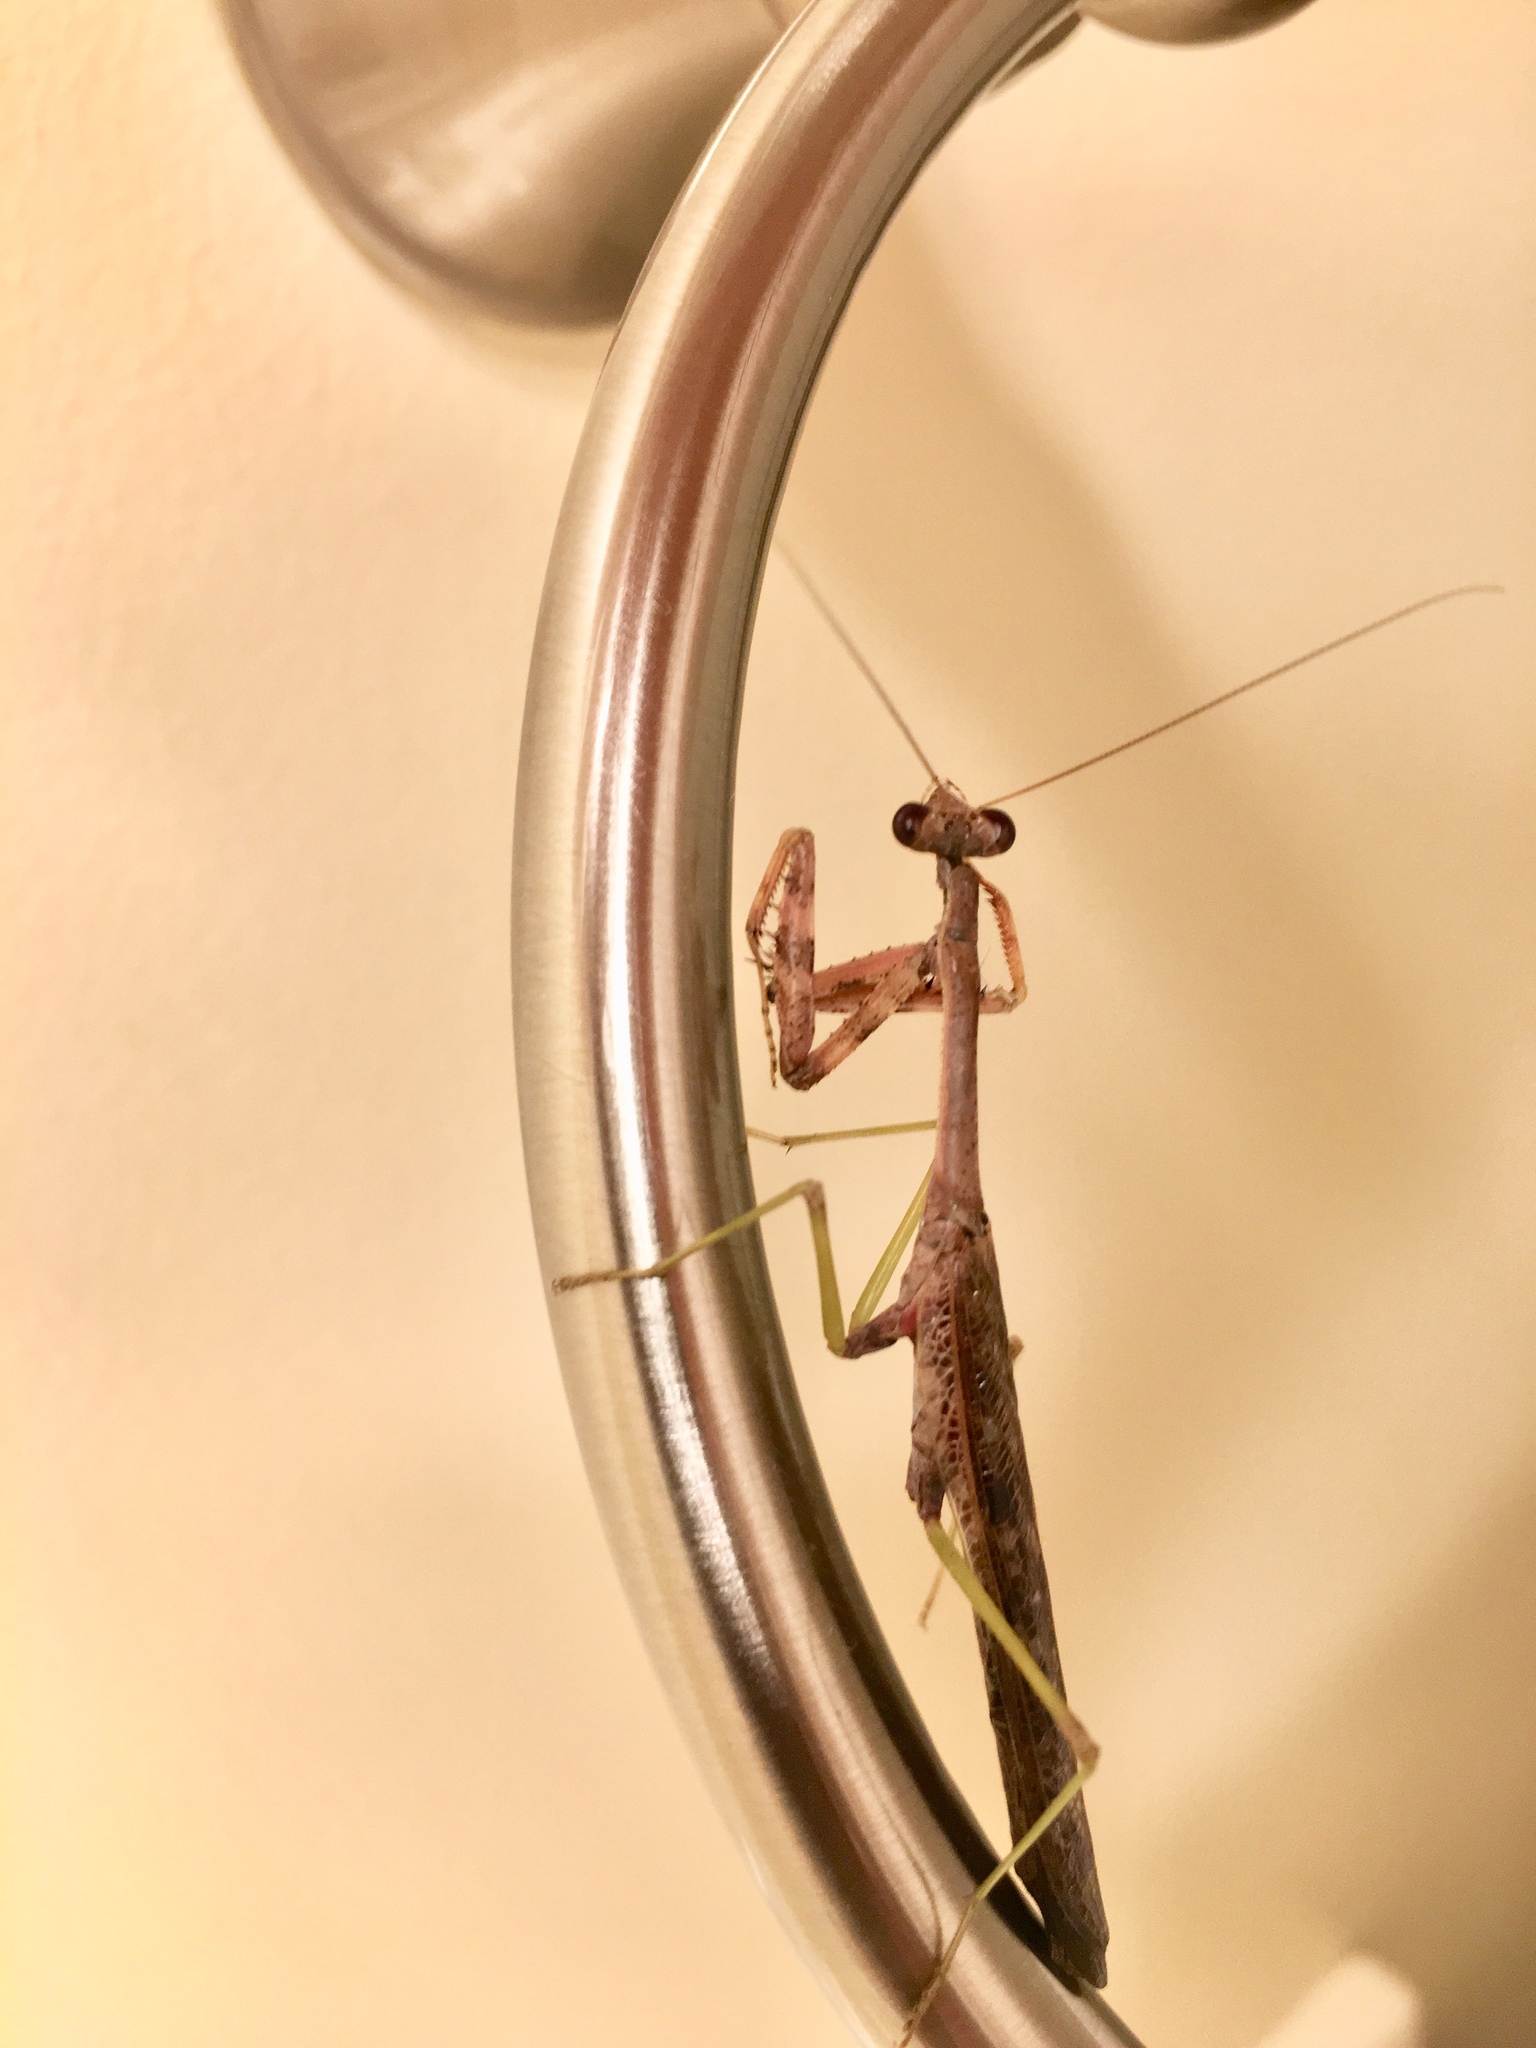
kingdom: Animalia
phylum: Arthropoda
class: Insecta
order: Mantodea
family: Mantidae
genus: Stagmomantis
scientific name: Stagmomantis carolina
